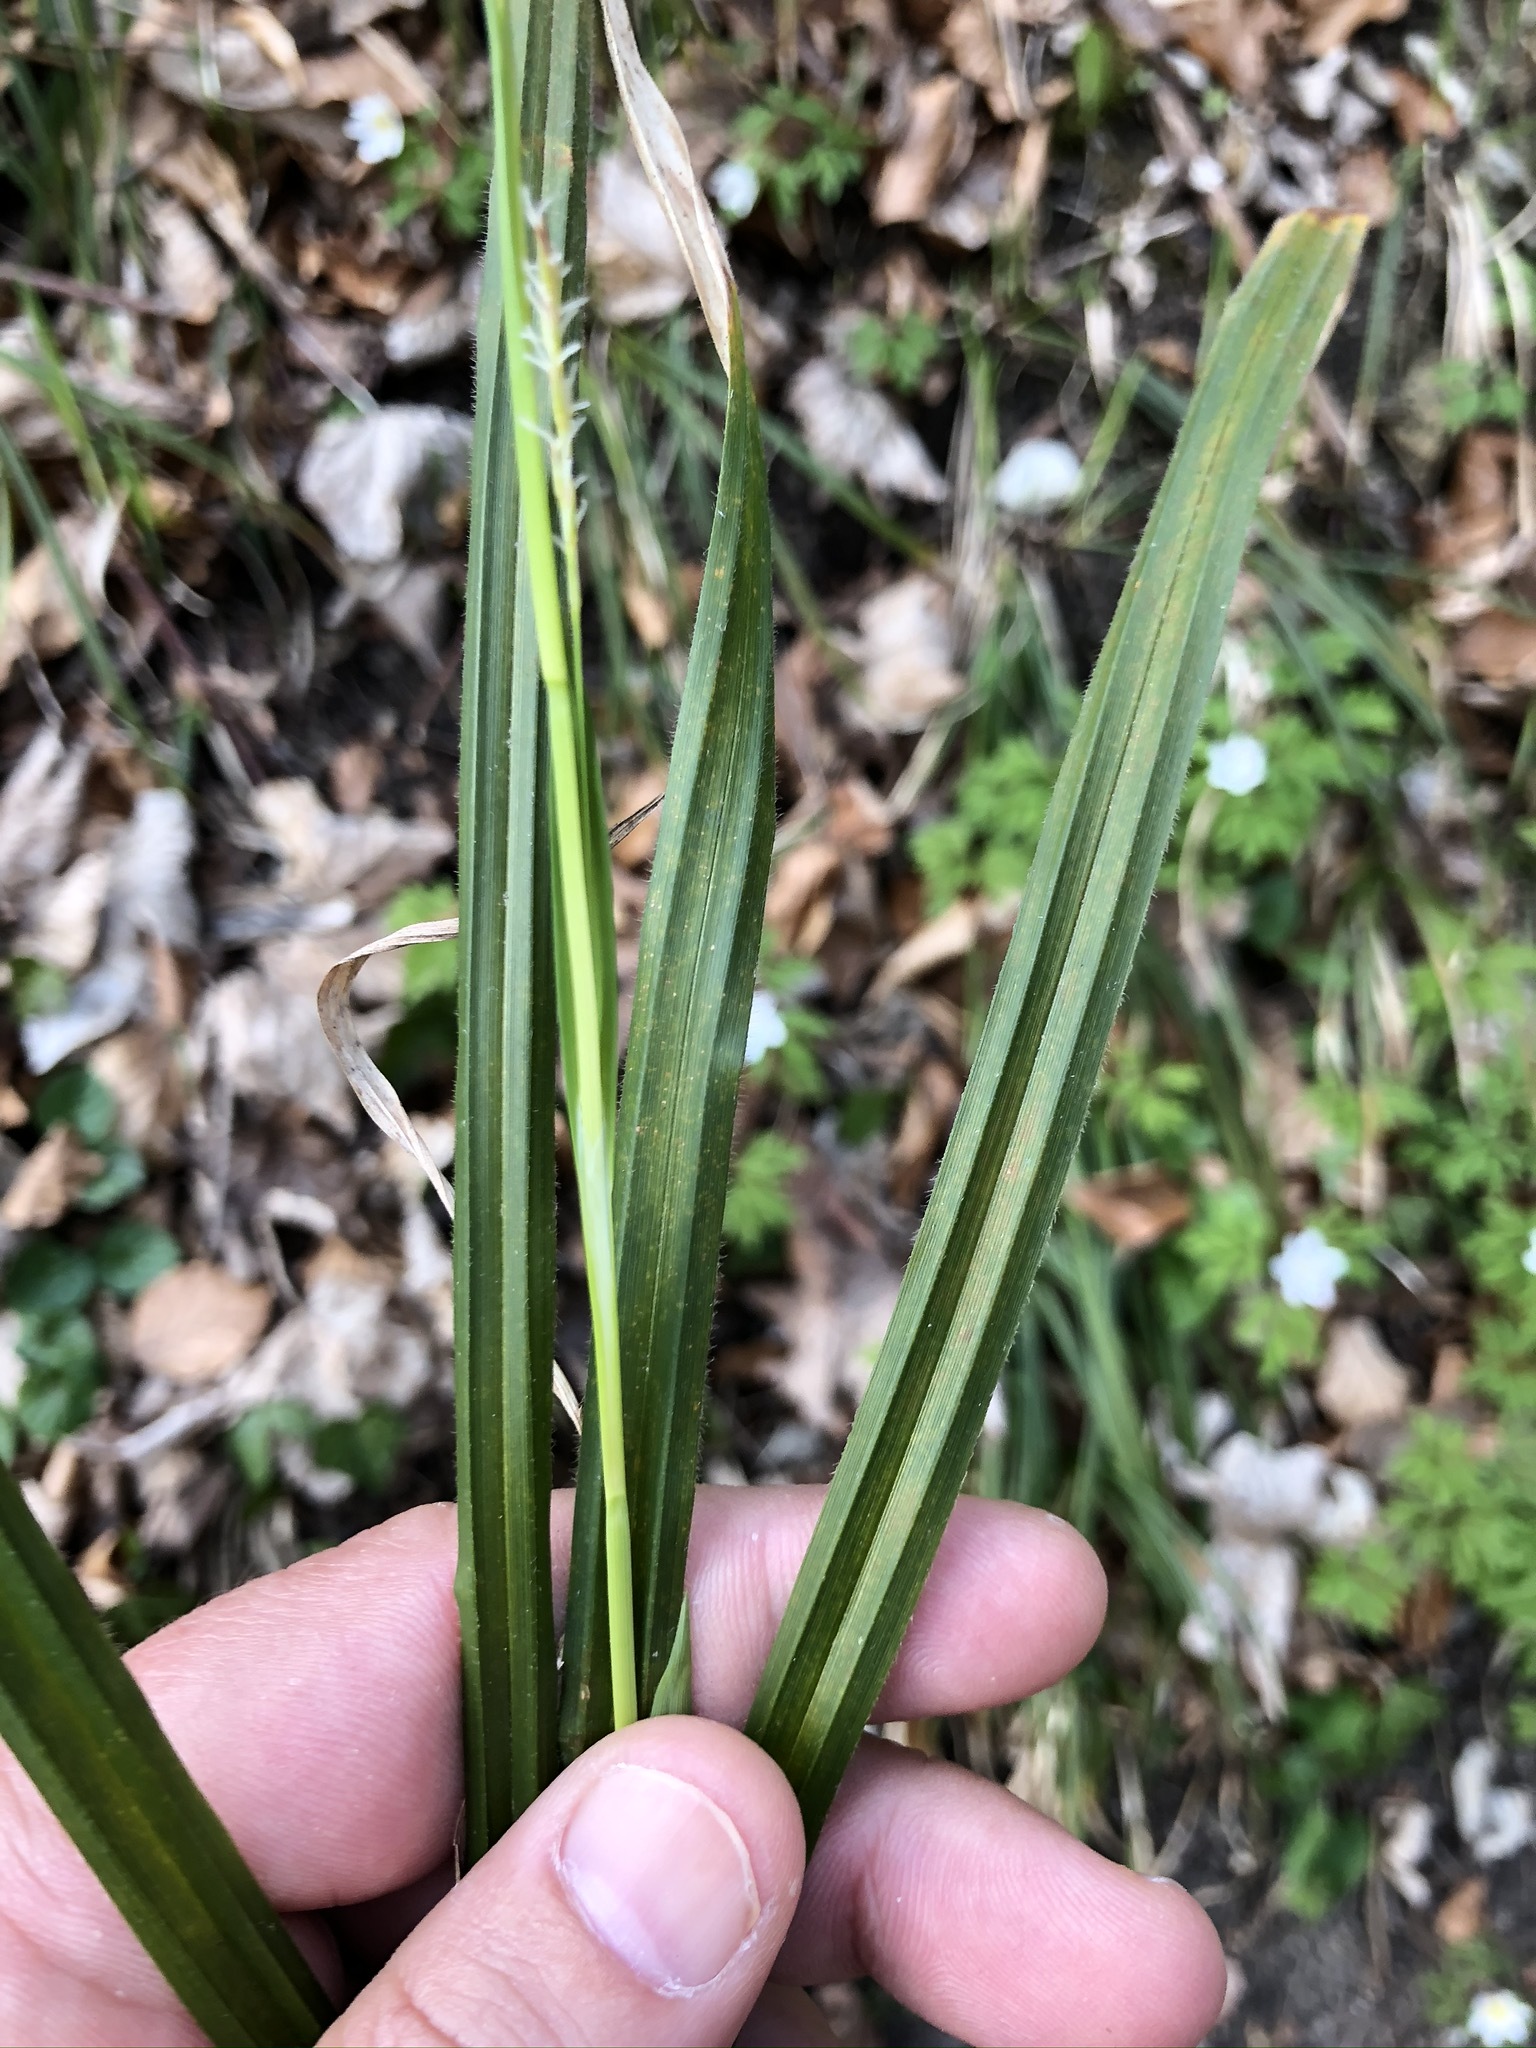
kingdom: Plantae
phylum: Tracheophyta
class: Liliopsida
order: Poales
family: Cyperaceae
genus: Carex
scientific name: Carex pilosa
